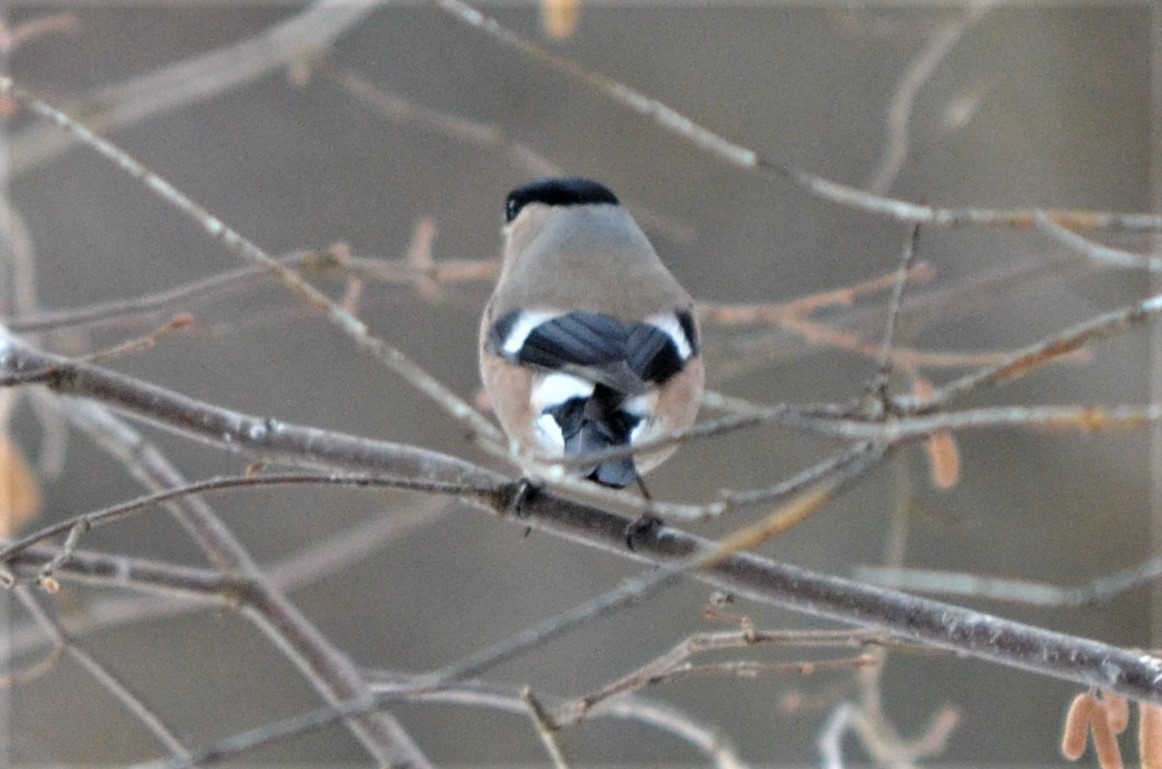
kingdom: Animalia
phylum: Chordata
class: Aves
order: Passeriformes
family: Fringillidae
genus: Pyrrhula
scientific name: Pyrrhula pyrrhula
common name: Eurasian bullfinch
